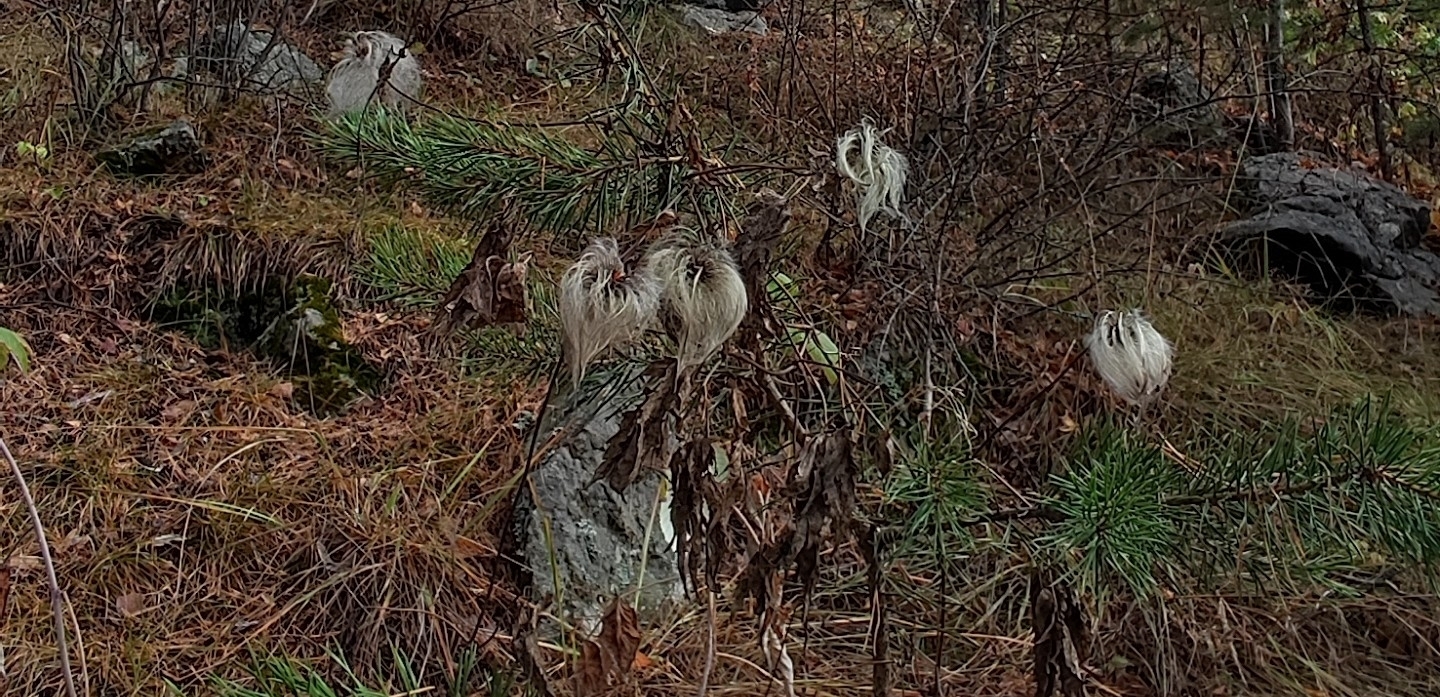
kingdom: Plantae
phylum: Tracheophyta
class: Magnoliopsida
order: Ranunculales
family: Ranunculaceae
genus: Clematis
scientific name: Clematis sibirica
